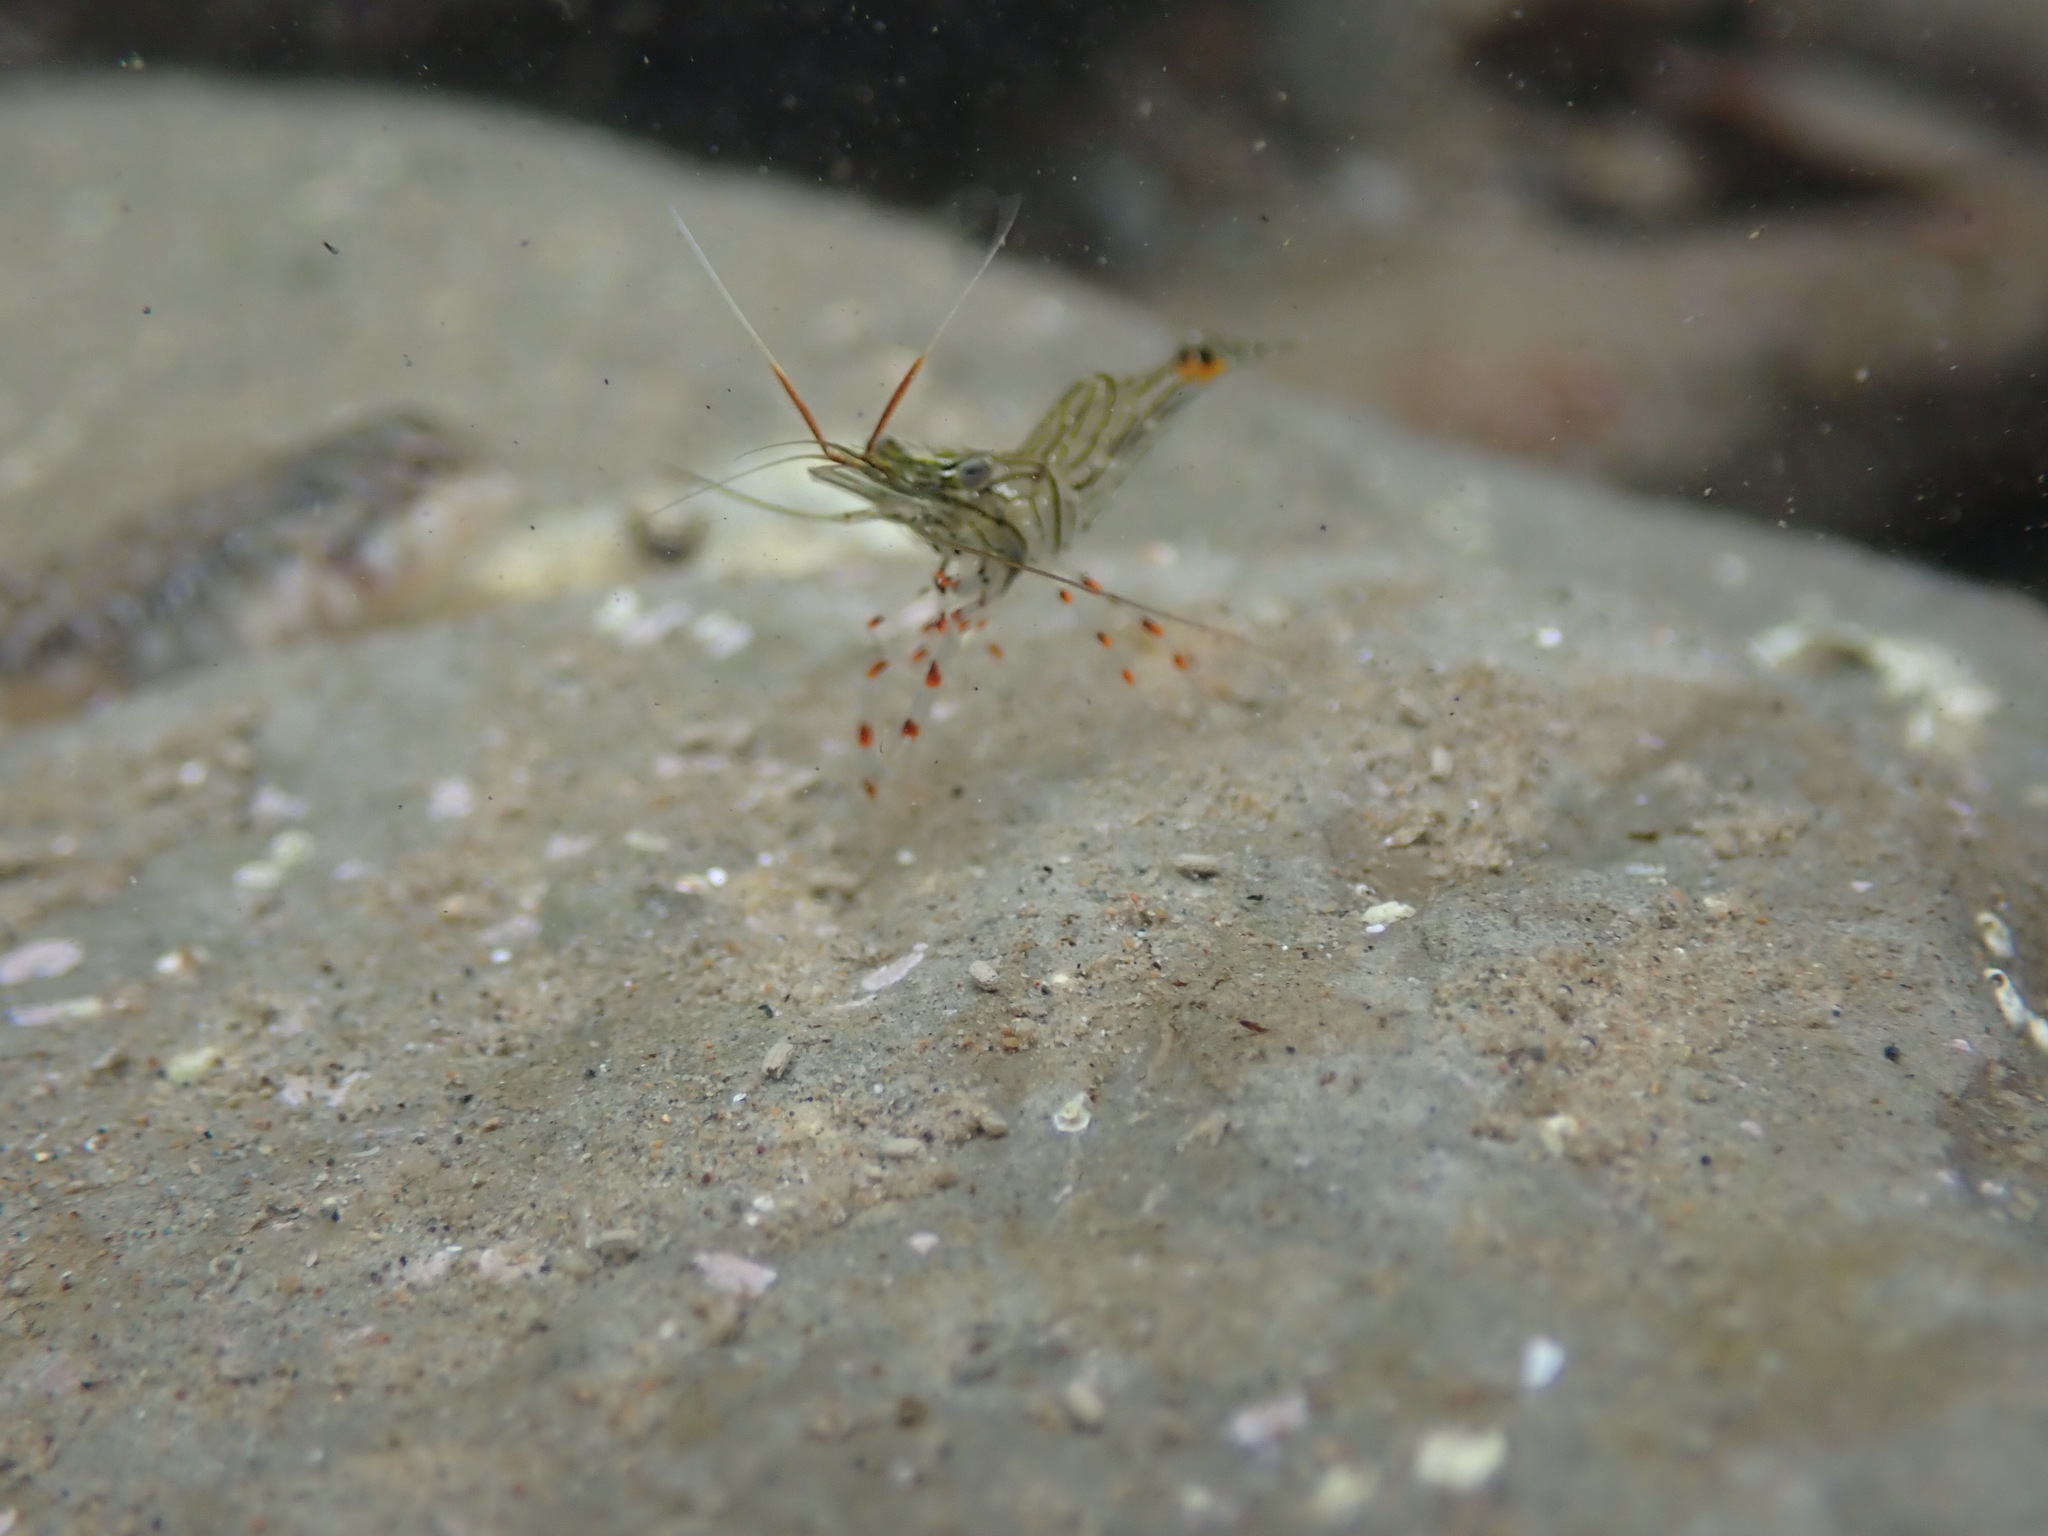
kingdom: Animalia
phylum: Arthropoda
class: Malacostraca
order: Decapoda
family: Palaemonidae
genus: Palaemon
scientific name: Palaemon affinis
